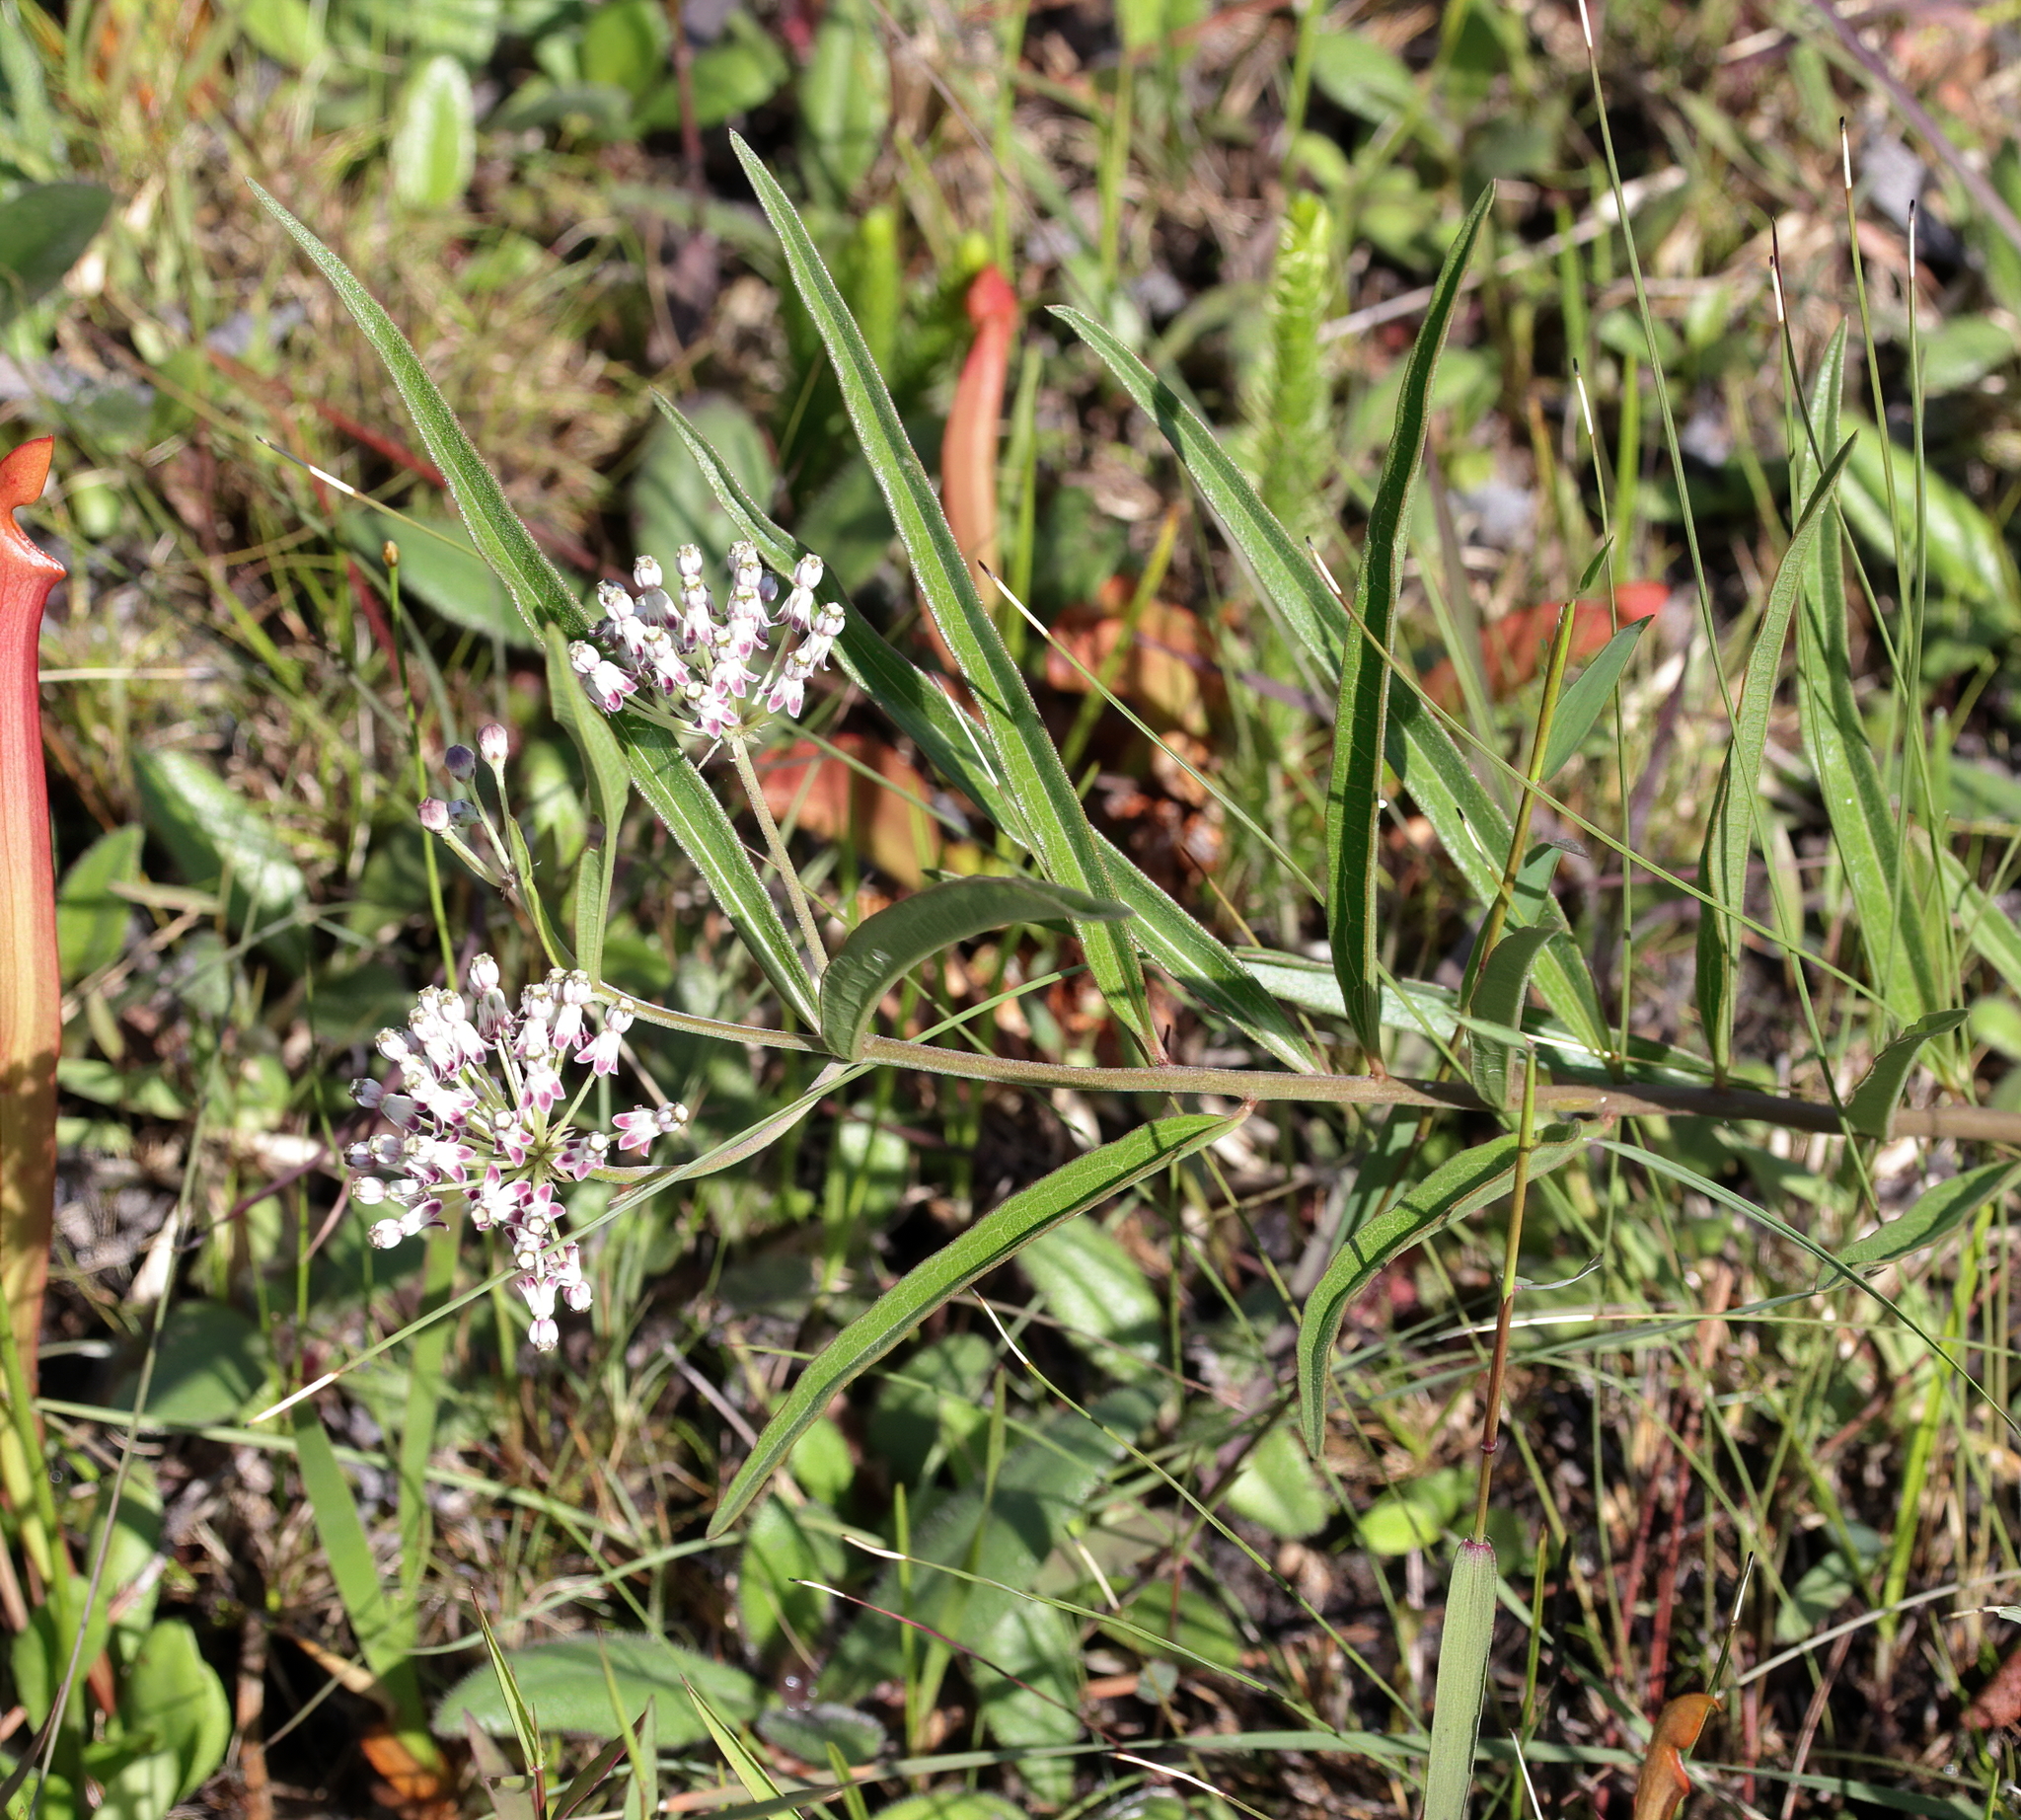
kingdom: Plantae
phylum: Tracheophyta
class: Magnoliopsida
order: Gentianales
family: Apocynaceae
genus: Asclepias
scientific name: Asclepias longifolia
